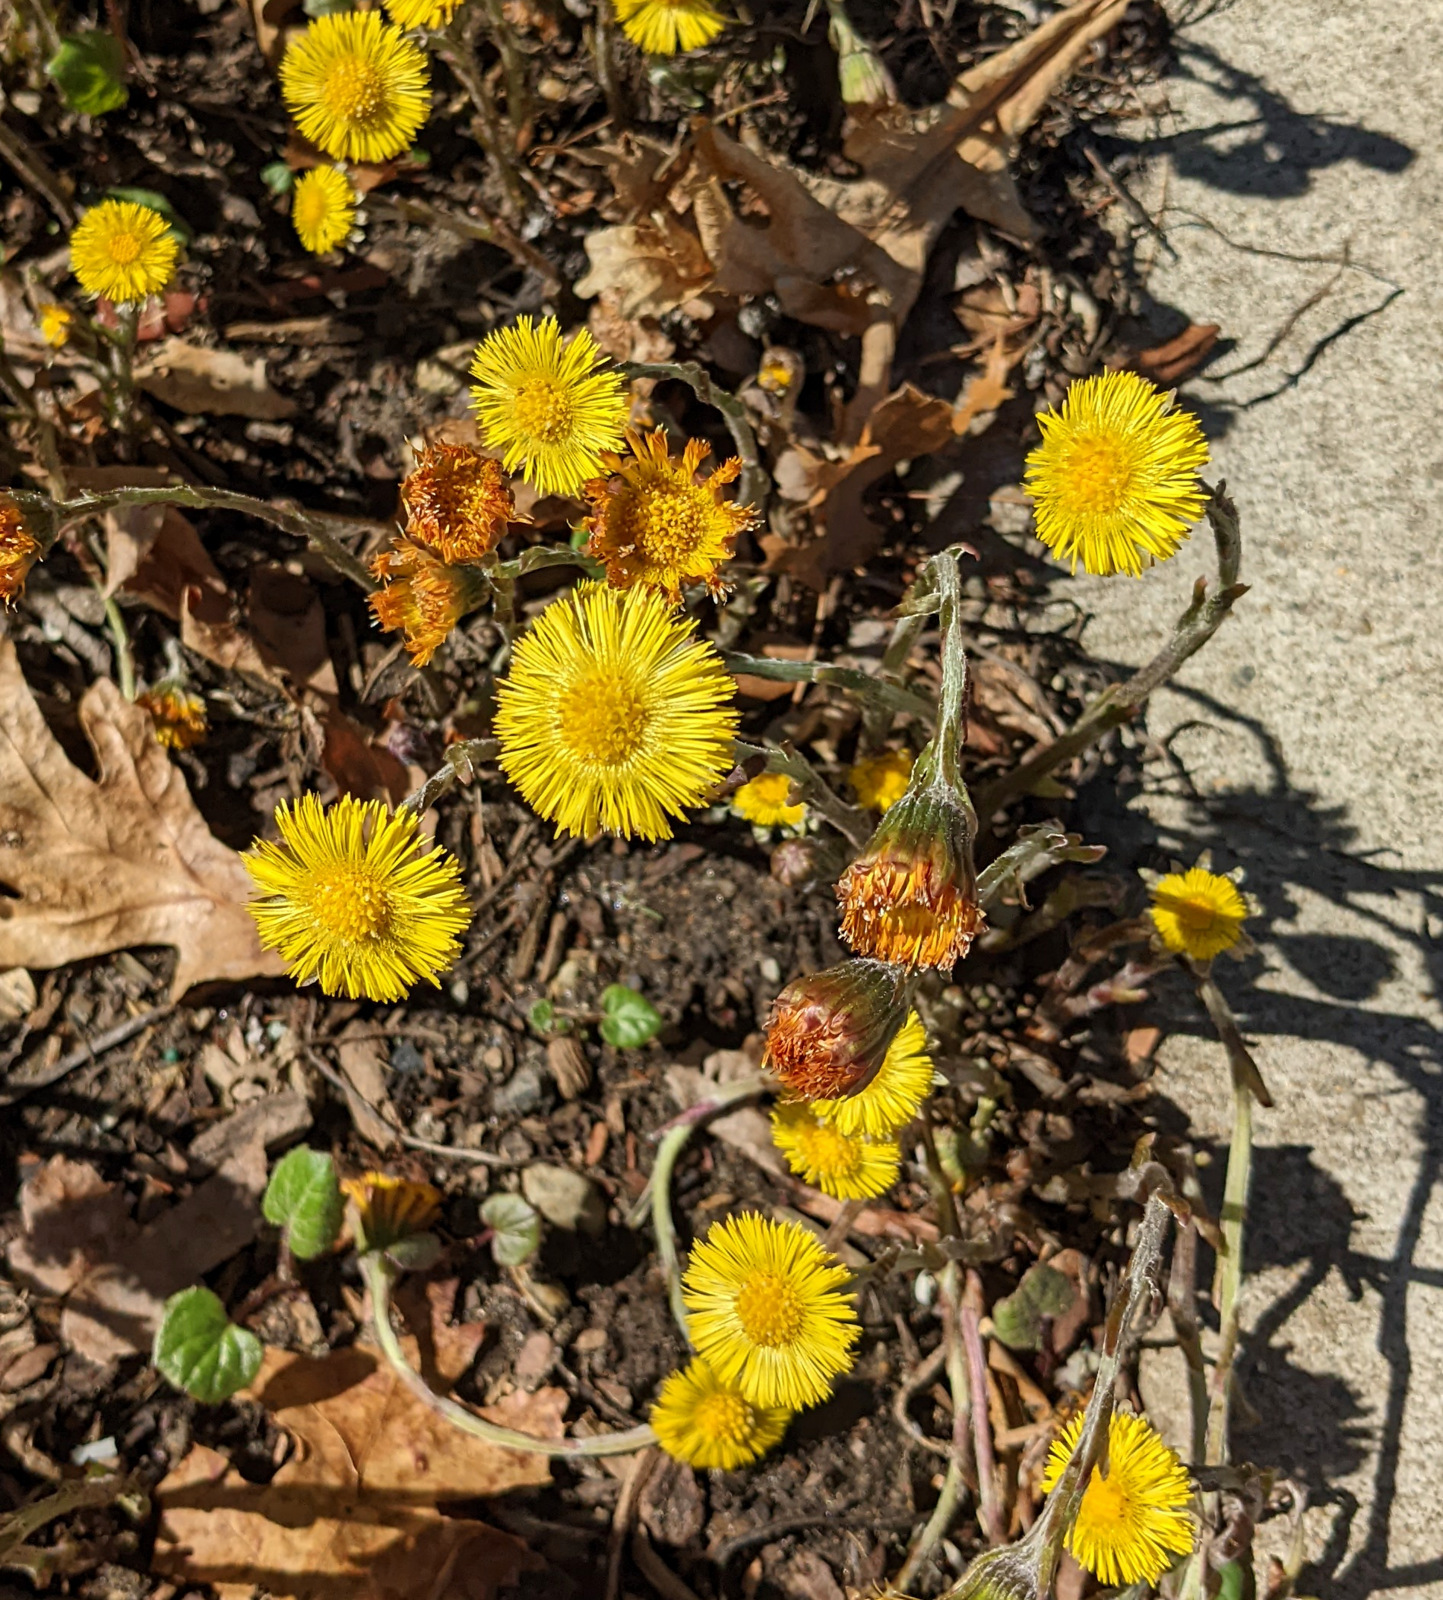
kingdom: Plantae
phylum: Tracheophyta
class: Magnoliopsida
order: Asterales
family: Asteraceae
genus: Tussilago
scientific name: Tussilago farfara
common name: Coltsfoot
